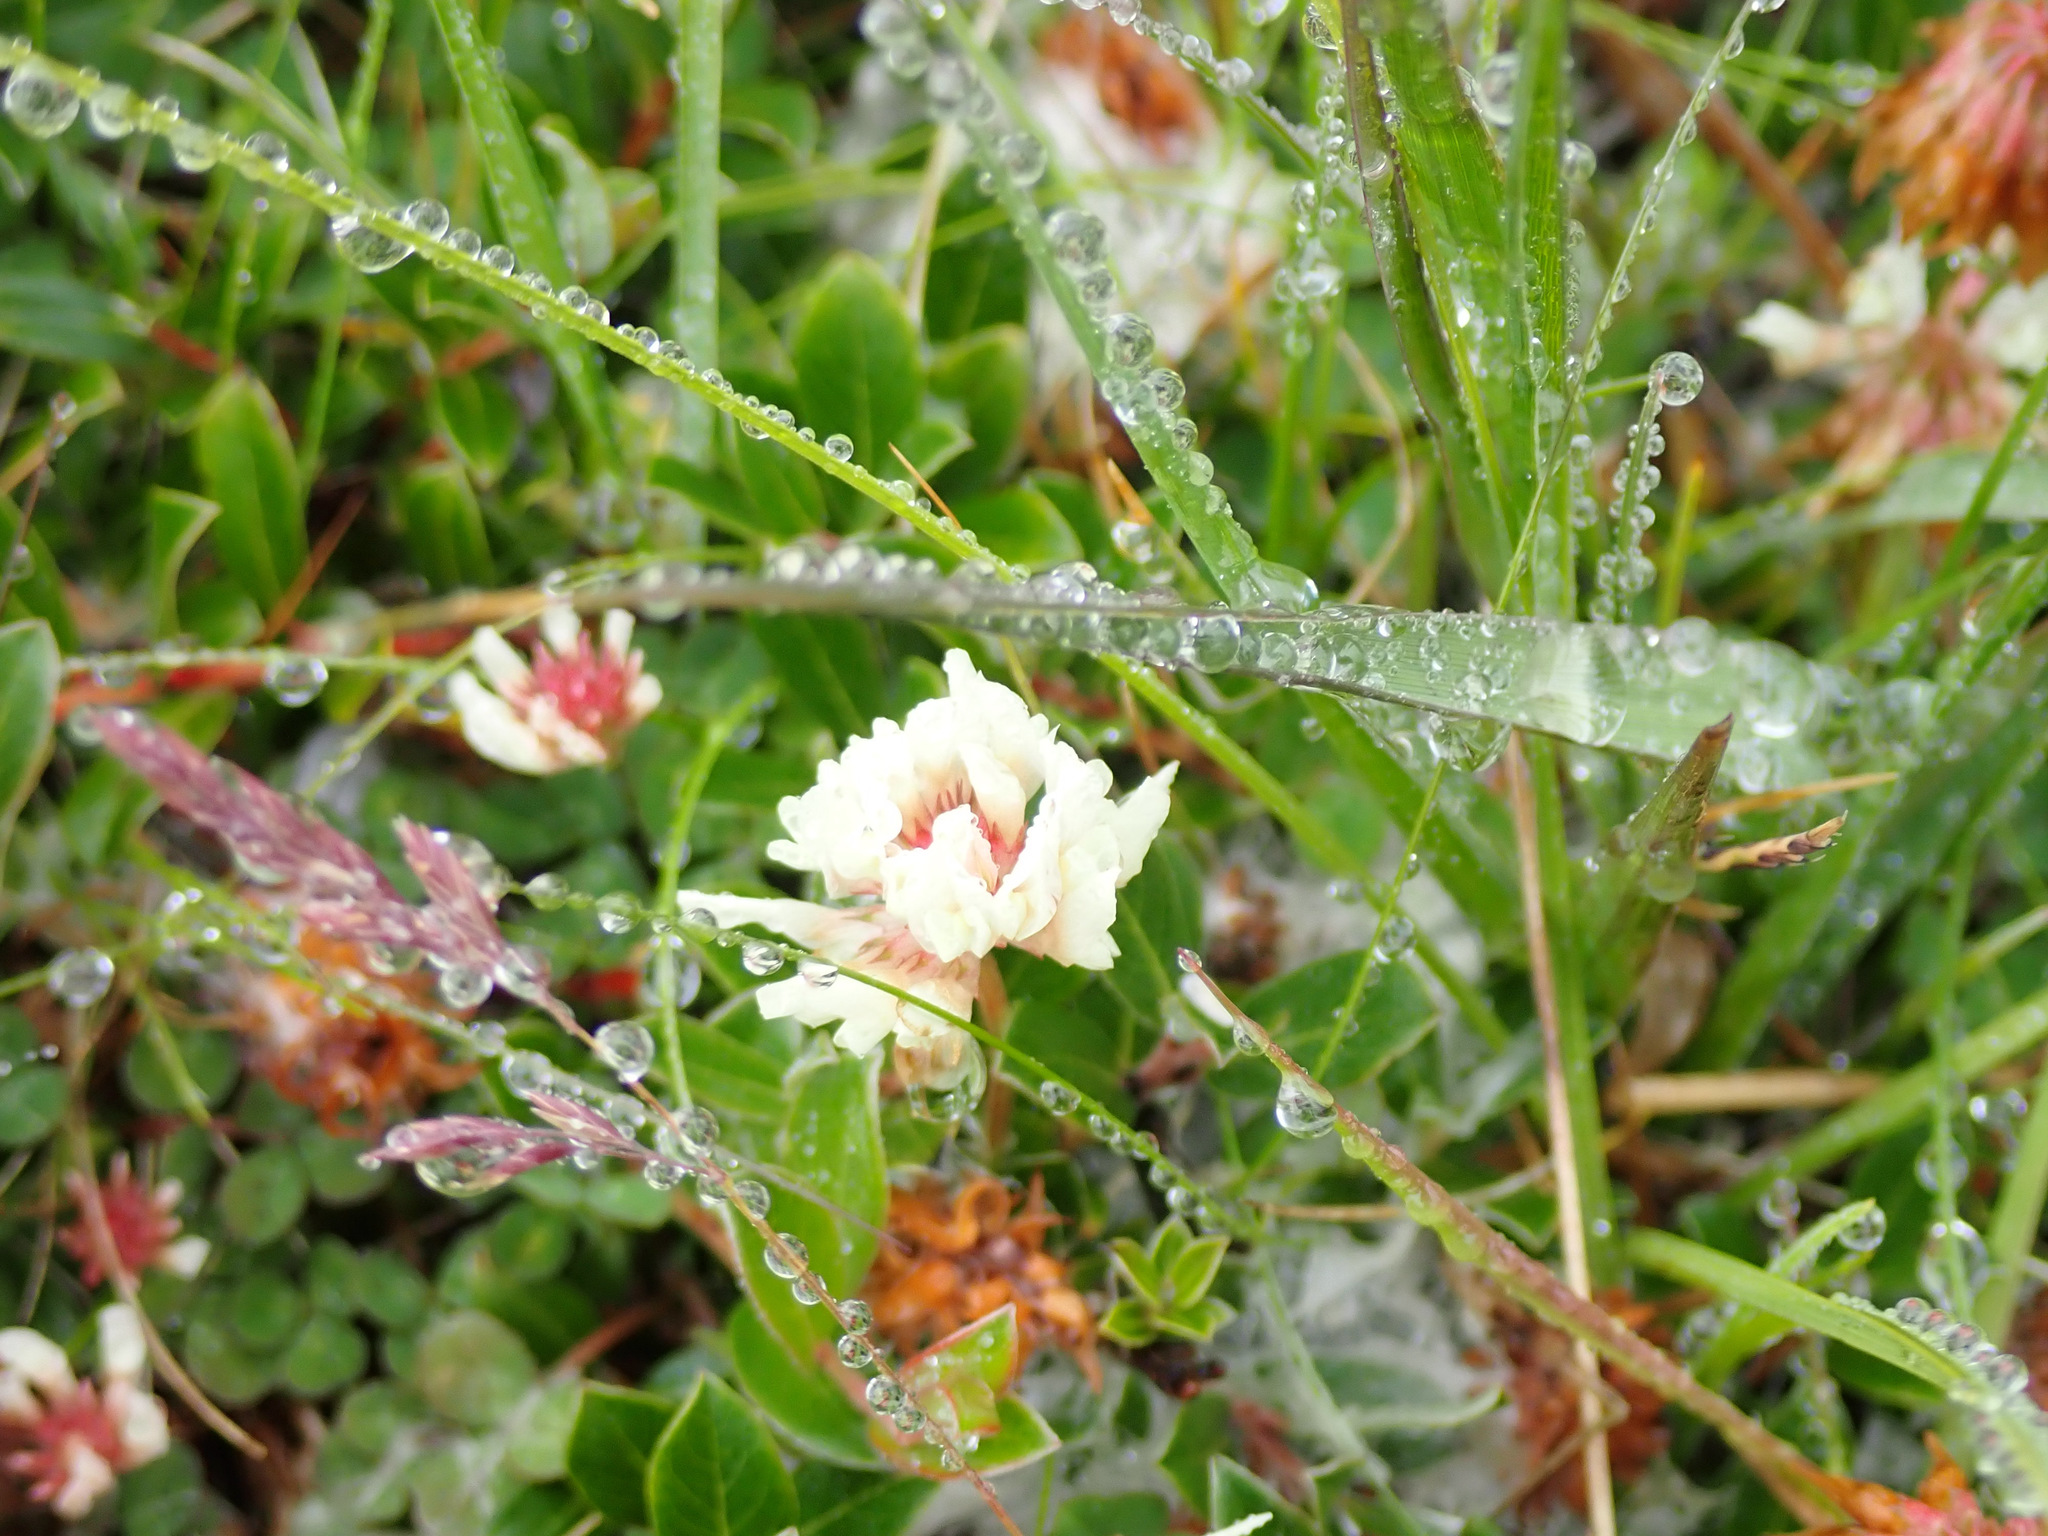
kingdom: Plantae
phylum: Tracheophyta
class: Magnoliopsida
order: Fabales
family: Fabaceae
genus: Trifolium
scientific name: Trifolium repens
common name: White clover
